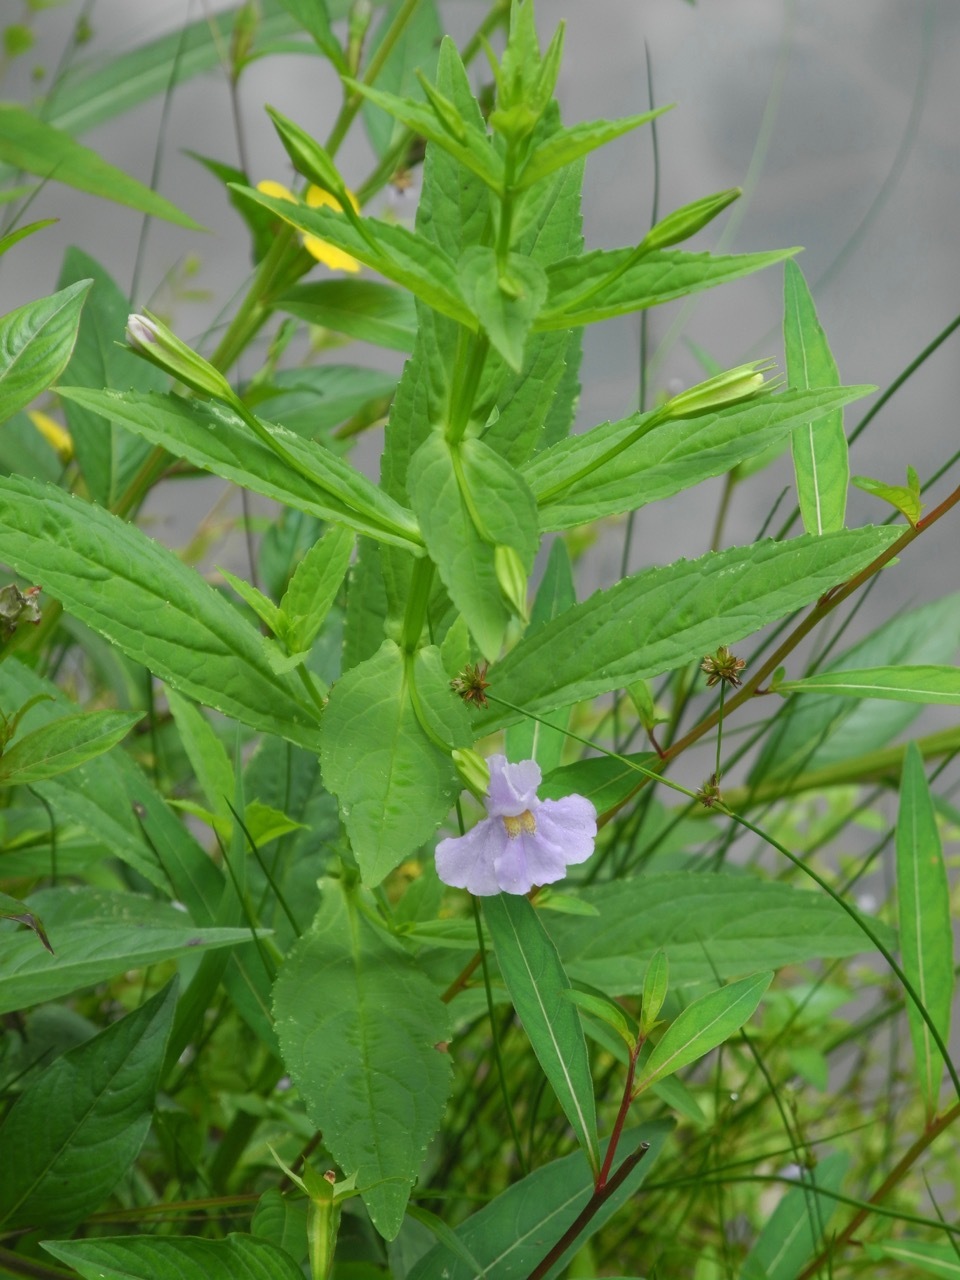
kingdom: Plantae
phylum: Tracheophyta
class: Magnoliopsida
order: Lamiales
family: Phrymaceae
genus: Mimulus
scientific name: Mimulus ringens
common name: Allegheny monkeyflower
